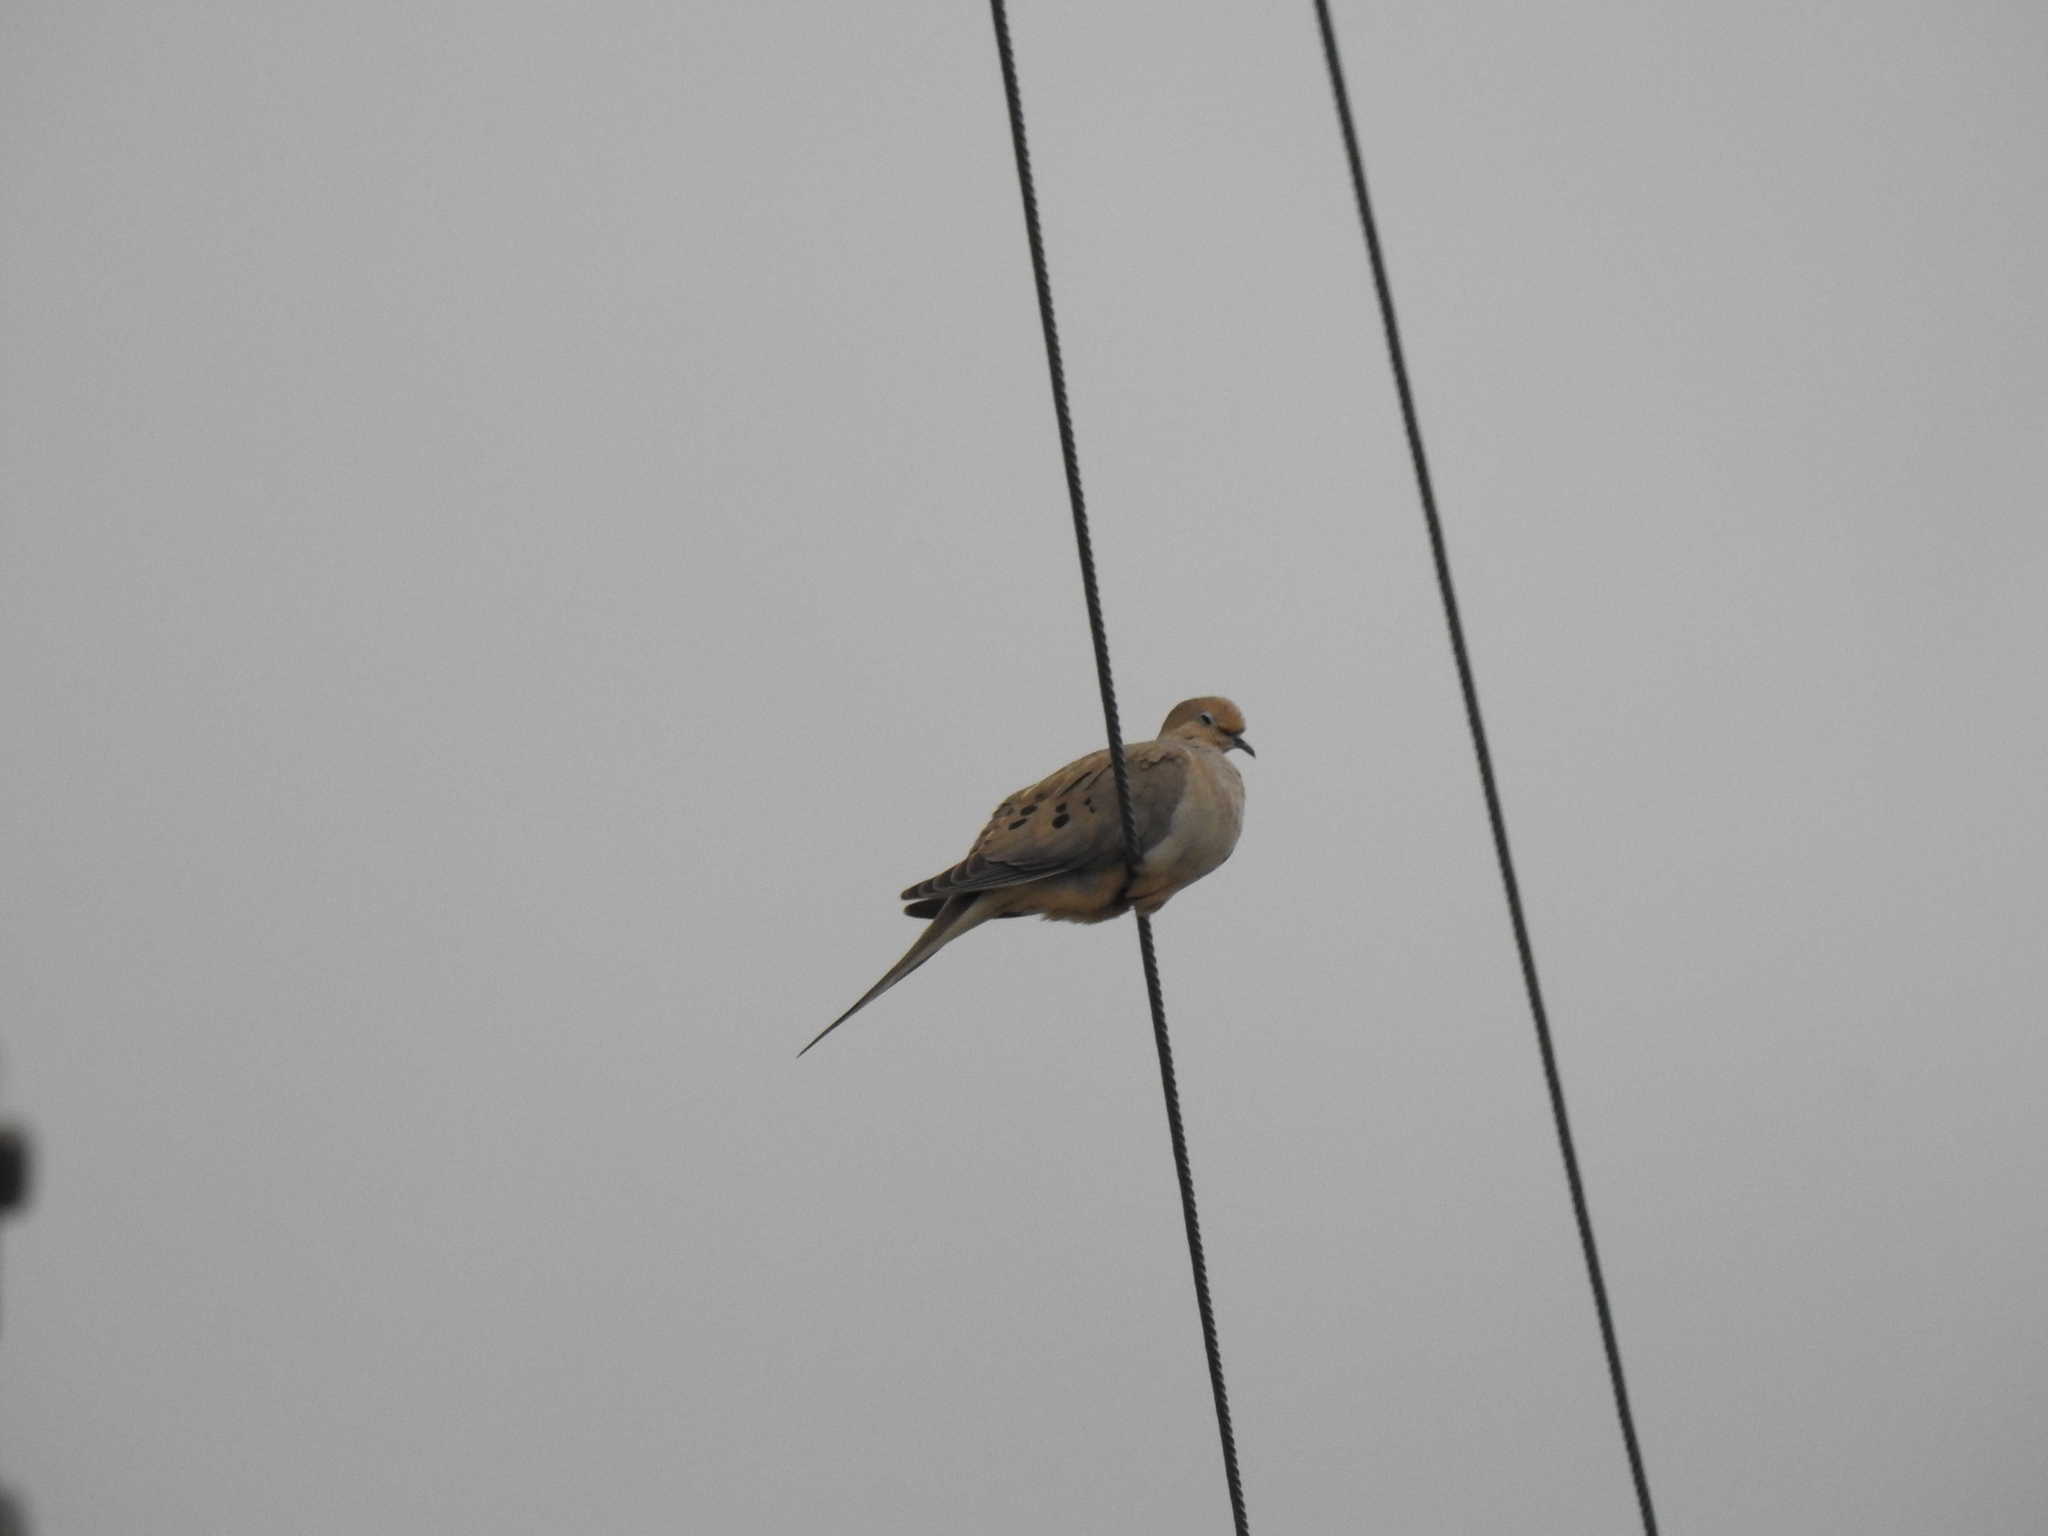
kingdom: Animalia
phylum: Chordata
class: Aves
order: Columbiformes
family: Columbidae
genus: Zenaida
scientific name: Zenaida macroura
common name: Mourning dove
